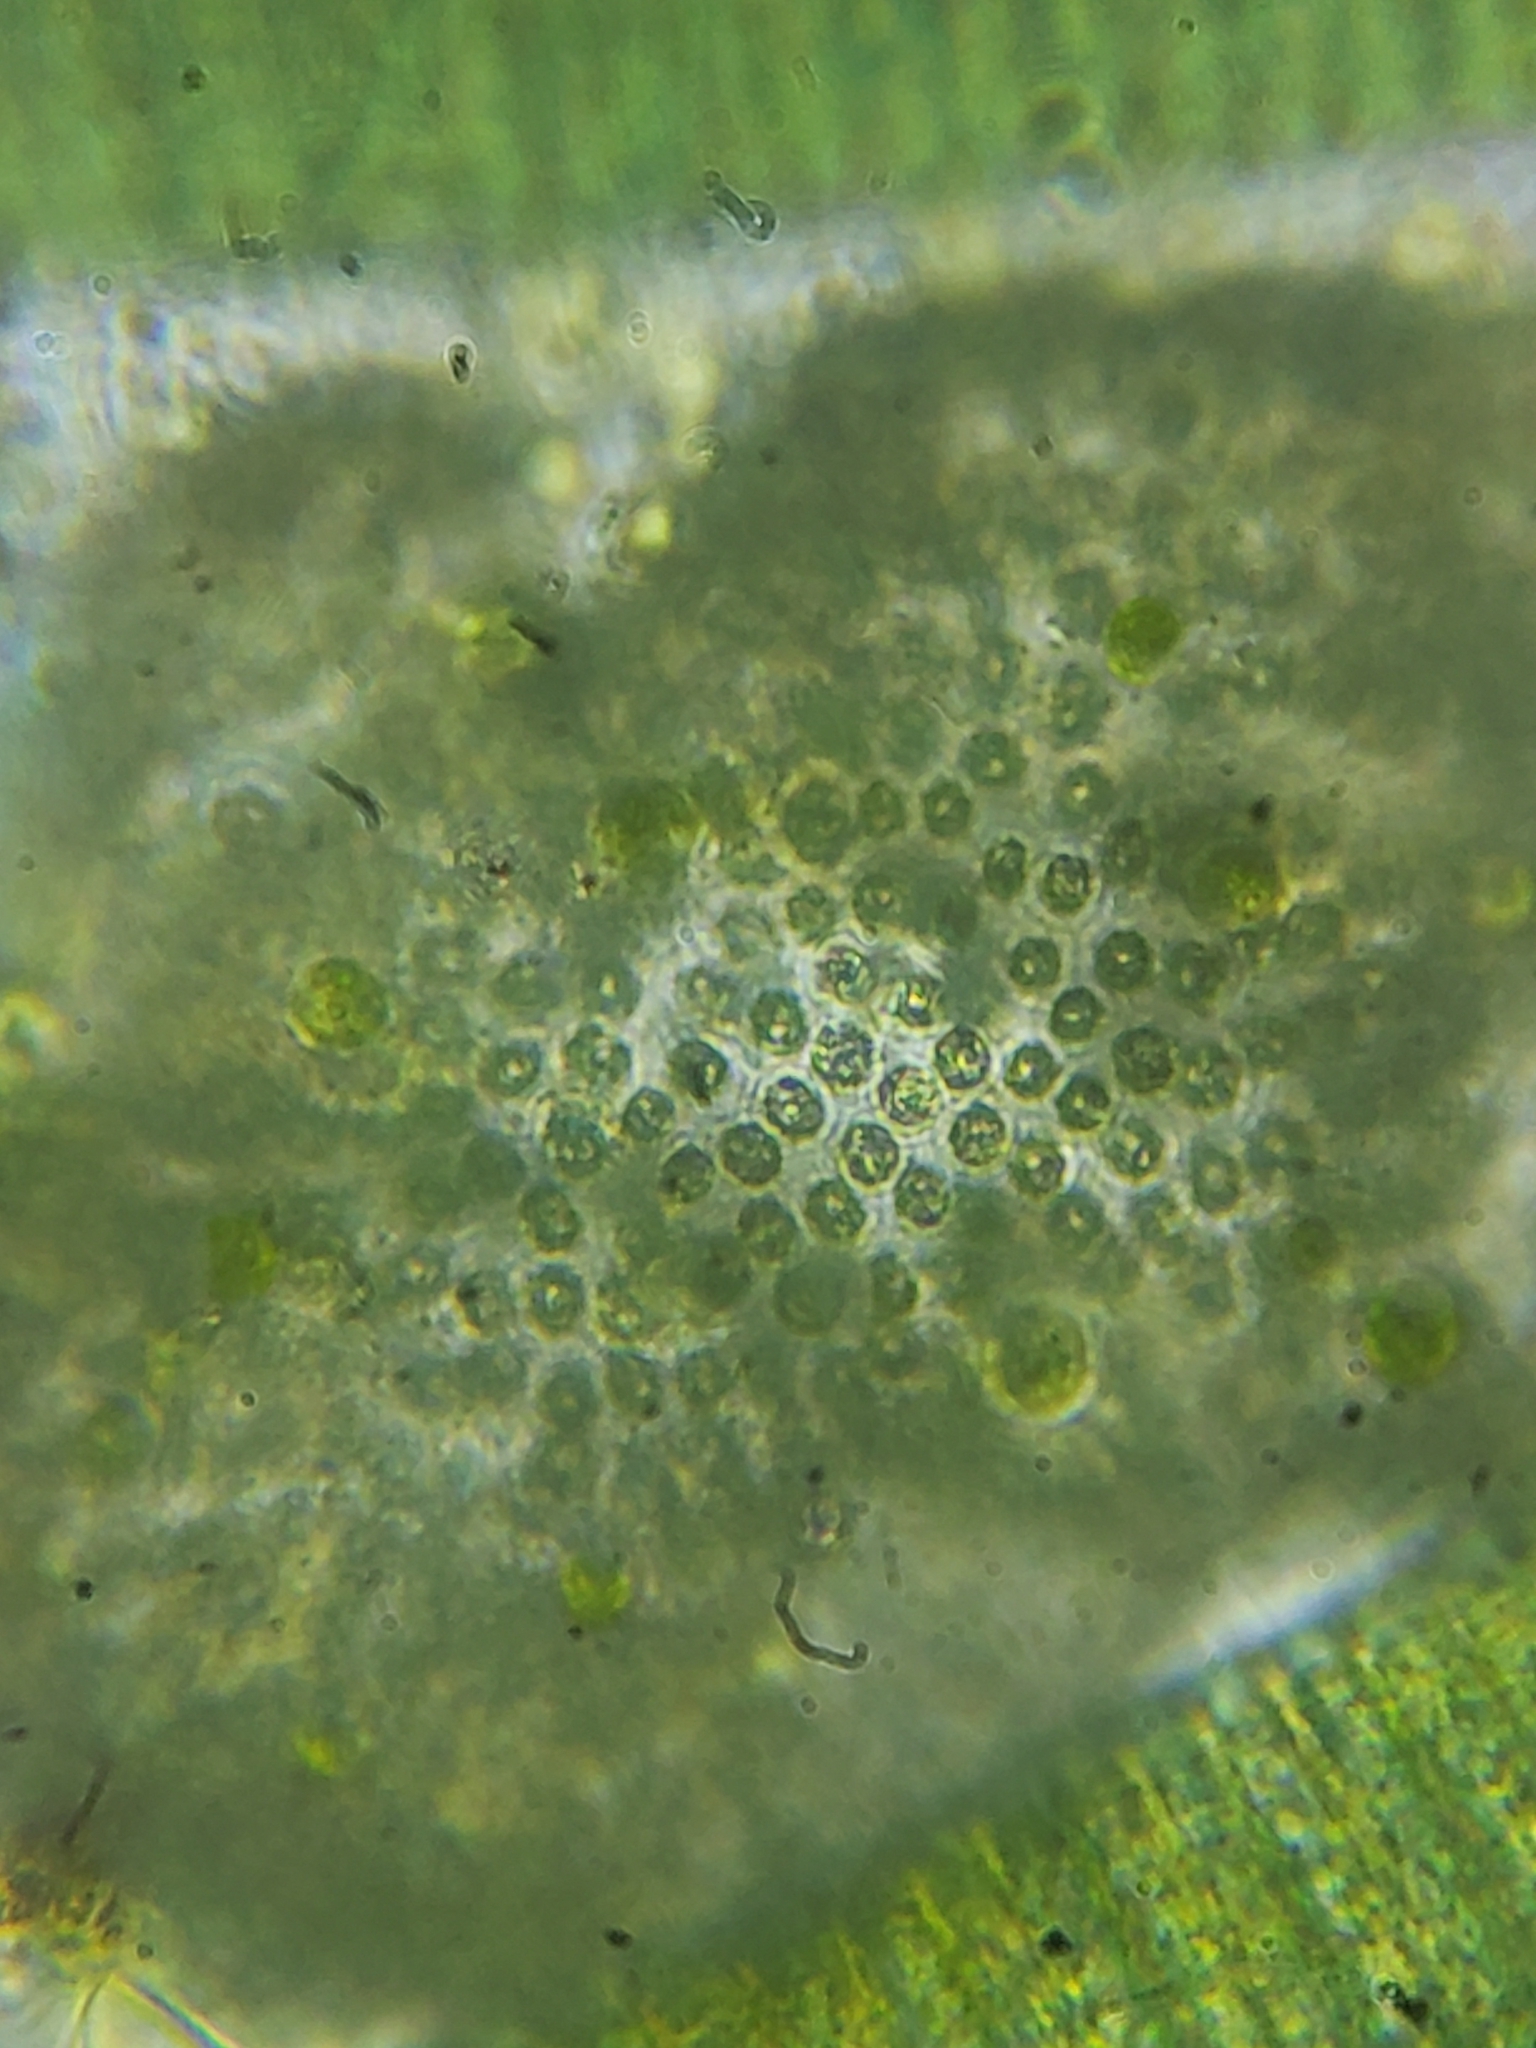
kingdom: Bacteria
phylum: Cyanobacteria
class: Cyanobacteriia
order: Synechococcales
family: Coelosphaeriaceae
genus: Woronichinia
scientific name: Woronichinia naegeliana
